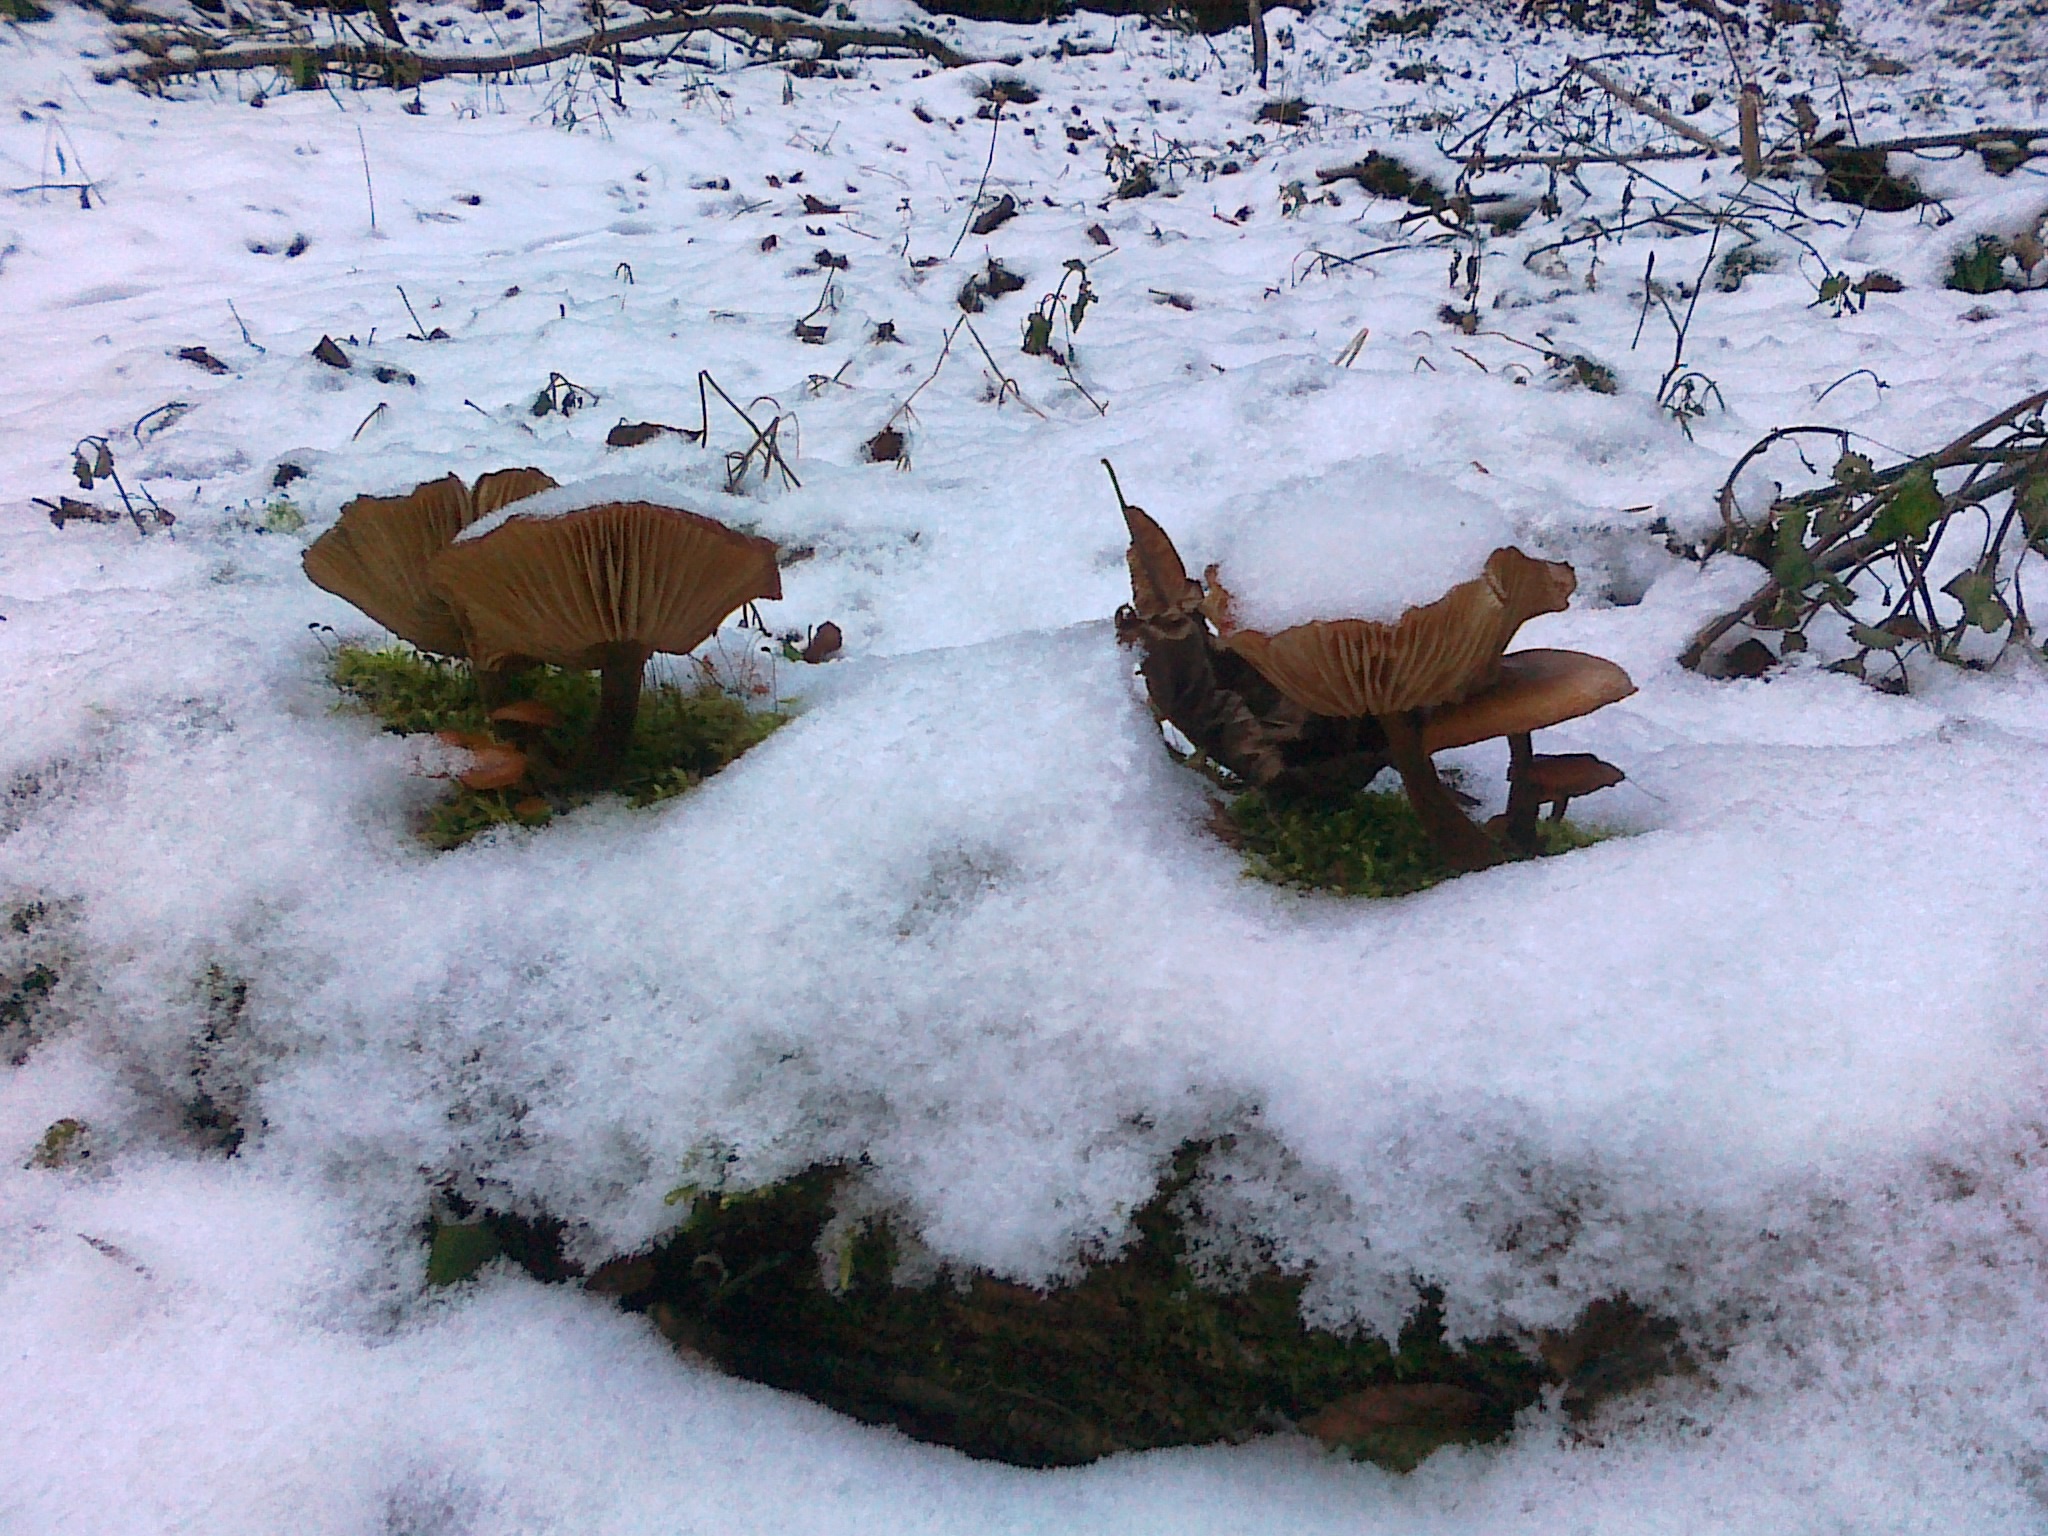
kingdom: Fungi
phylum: Basidiomycota
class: Agaricomycetes
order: Agaricales
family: Physalacriaceae
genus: Flammulina
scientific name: Flammulina
